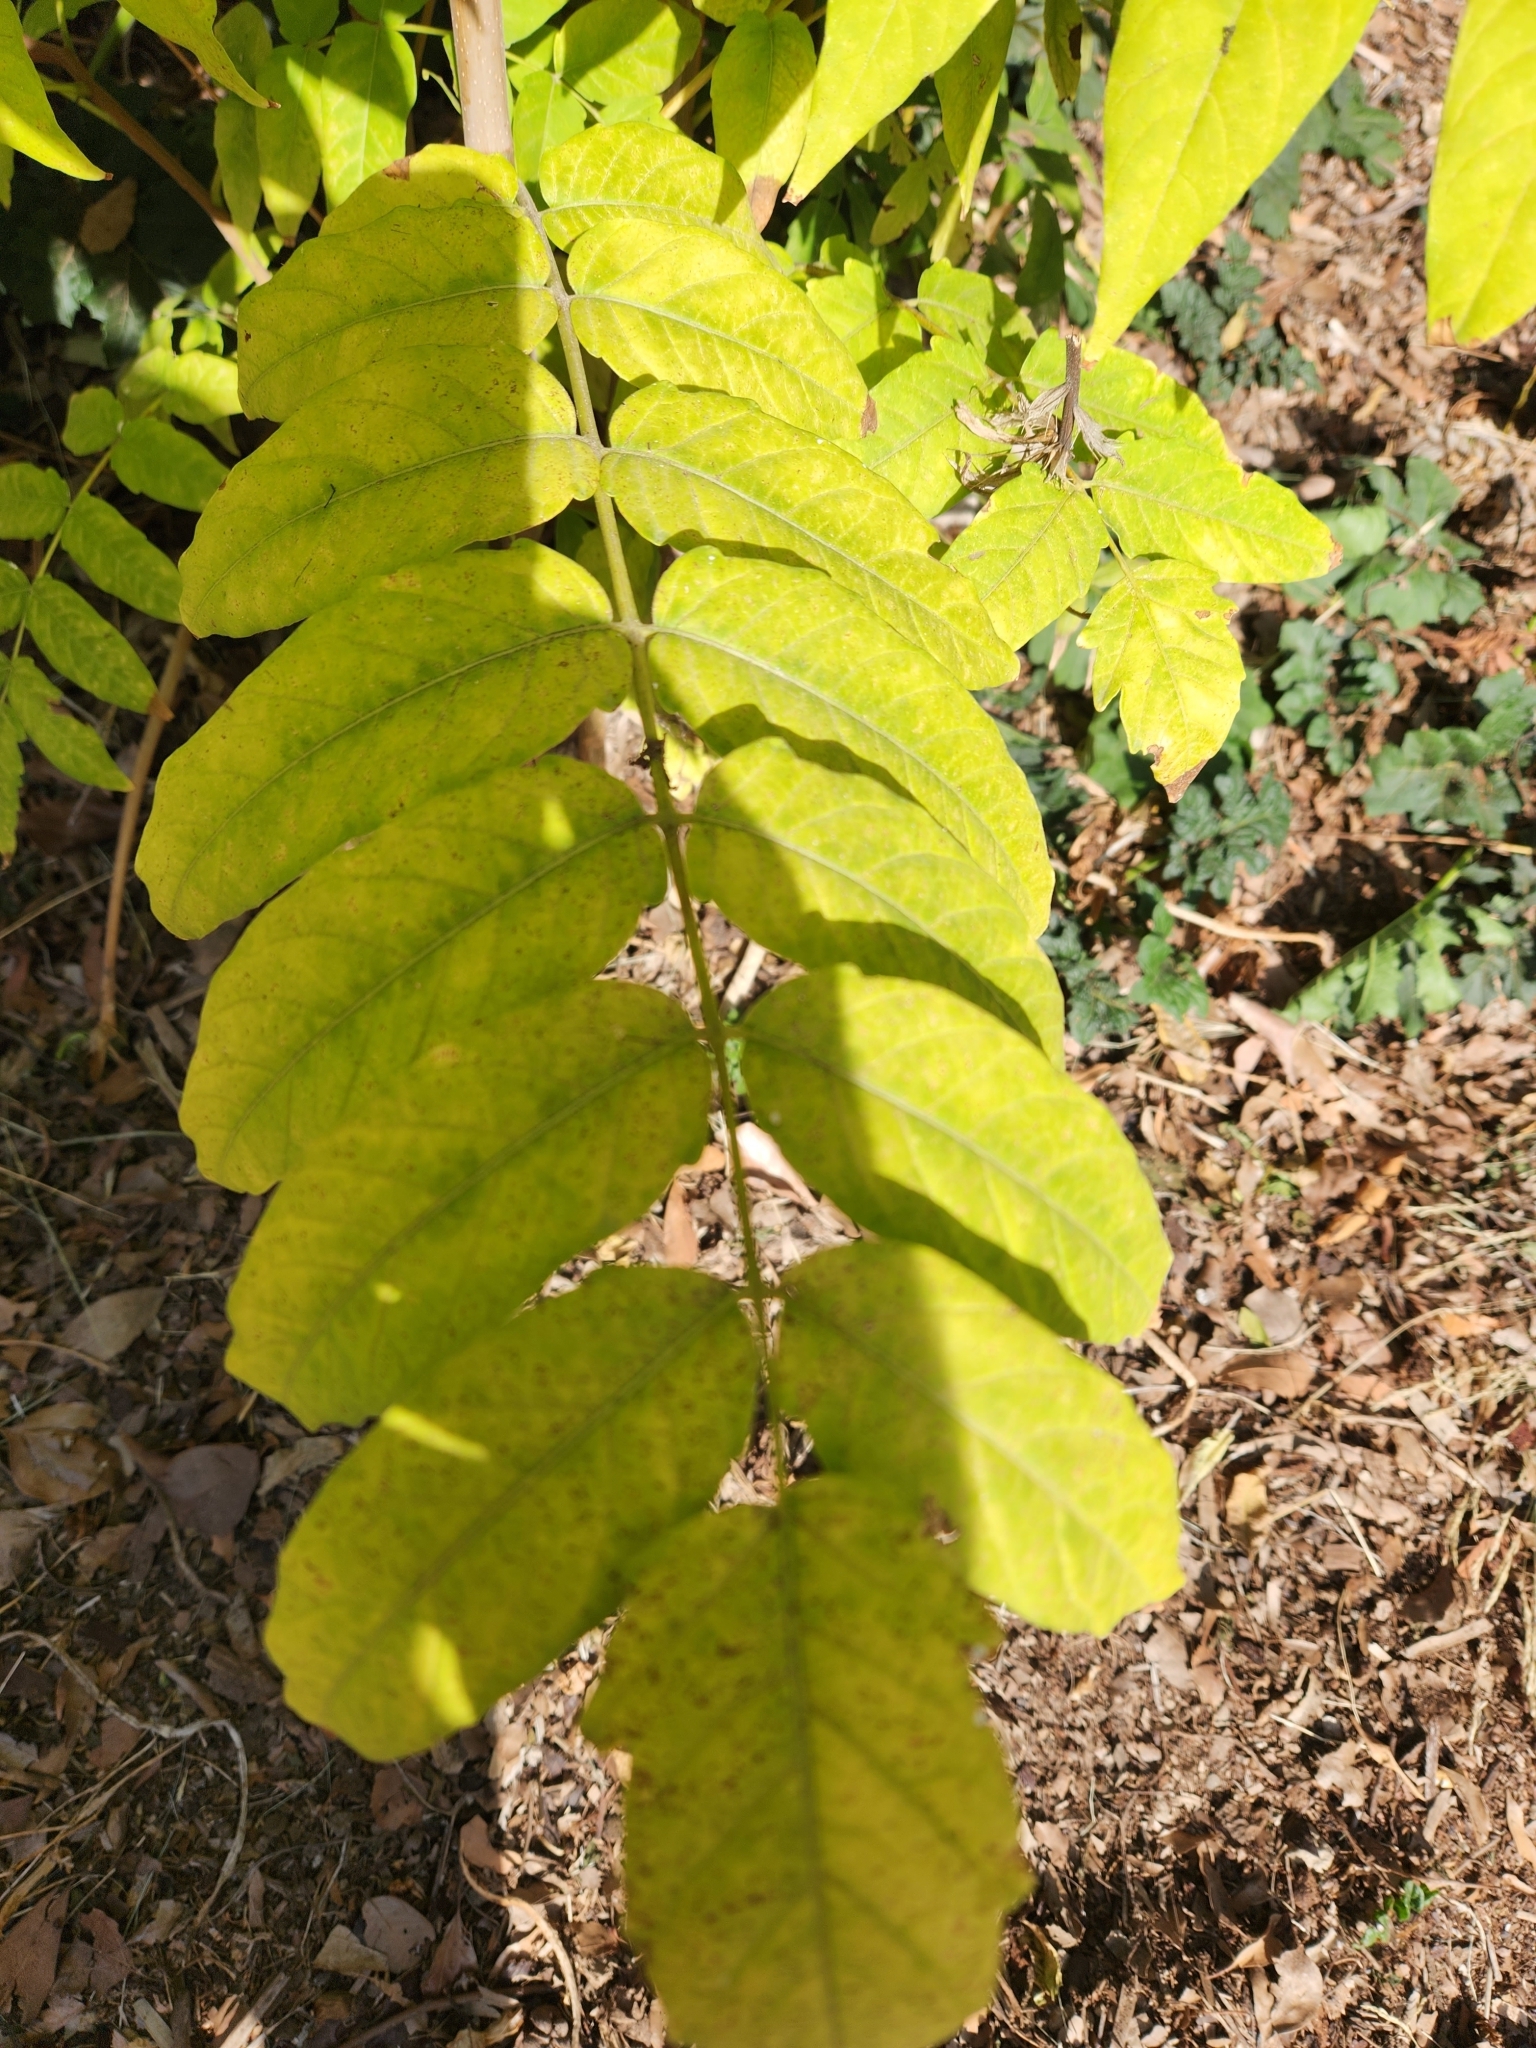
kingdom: Plantae
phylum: Tracheophyta
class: Magnoliopsida
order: Sapindales
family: Simaroubaceae
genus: Ailanthus
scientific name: Ailanthus altissima
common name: Tree-of-heaven
